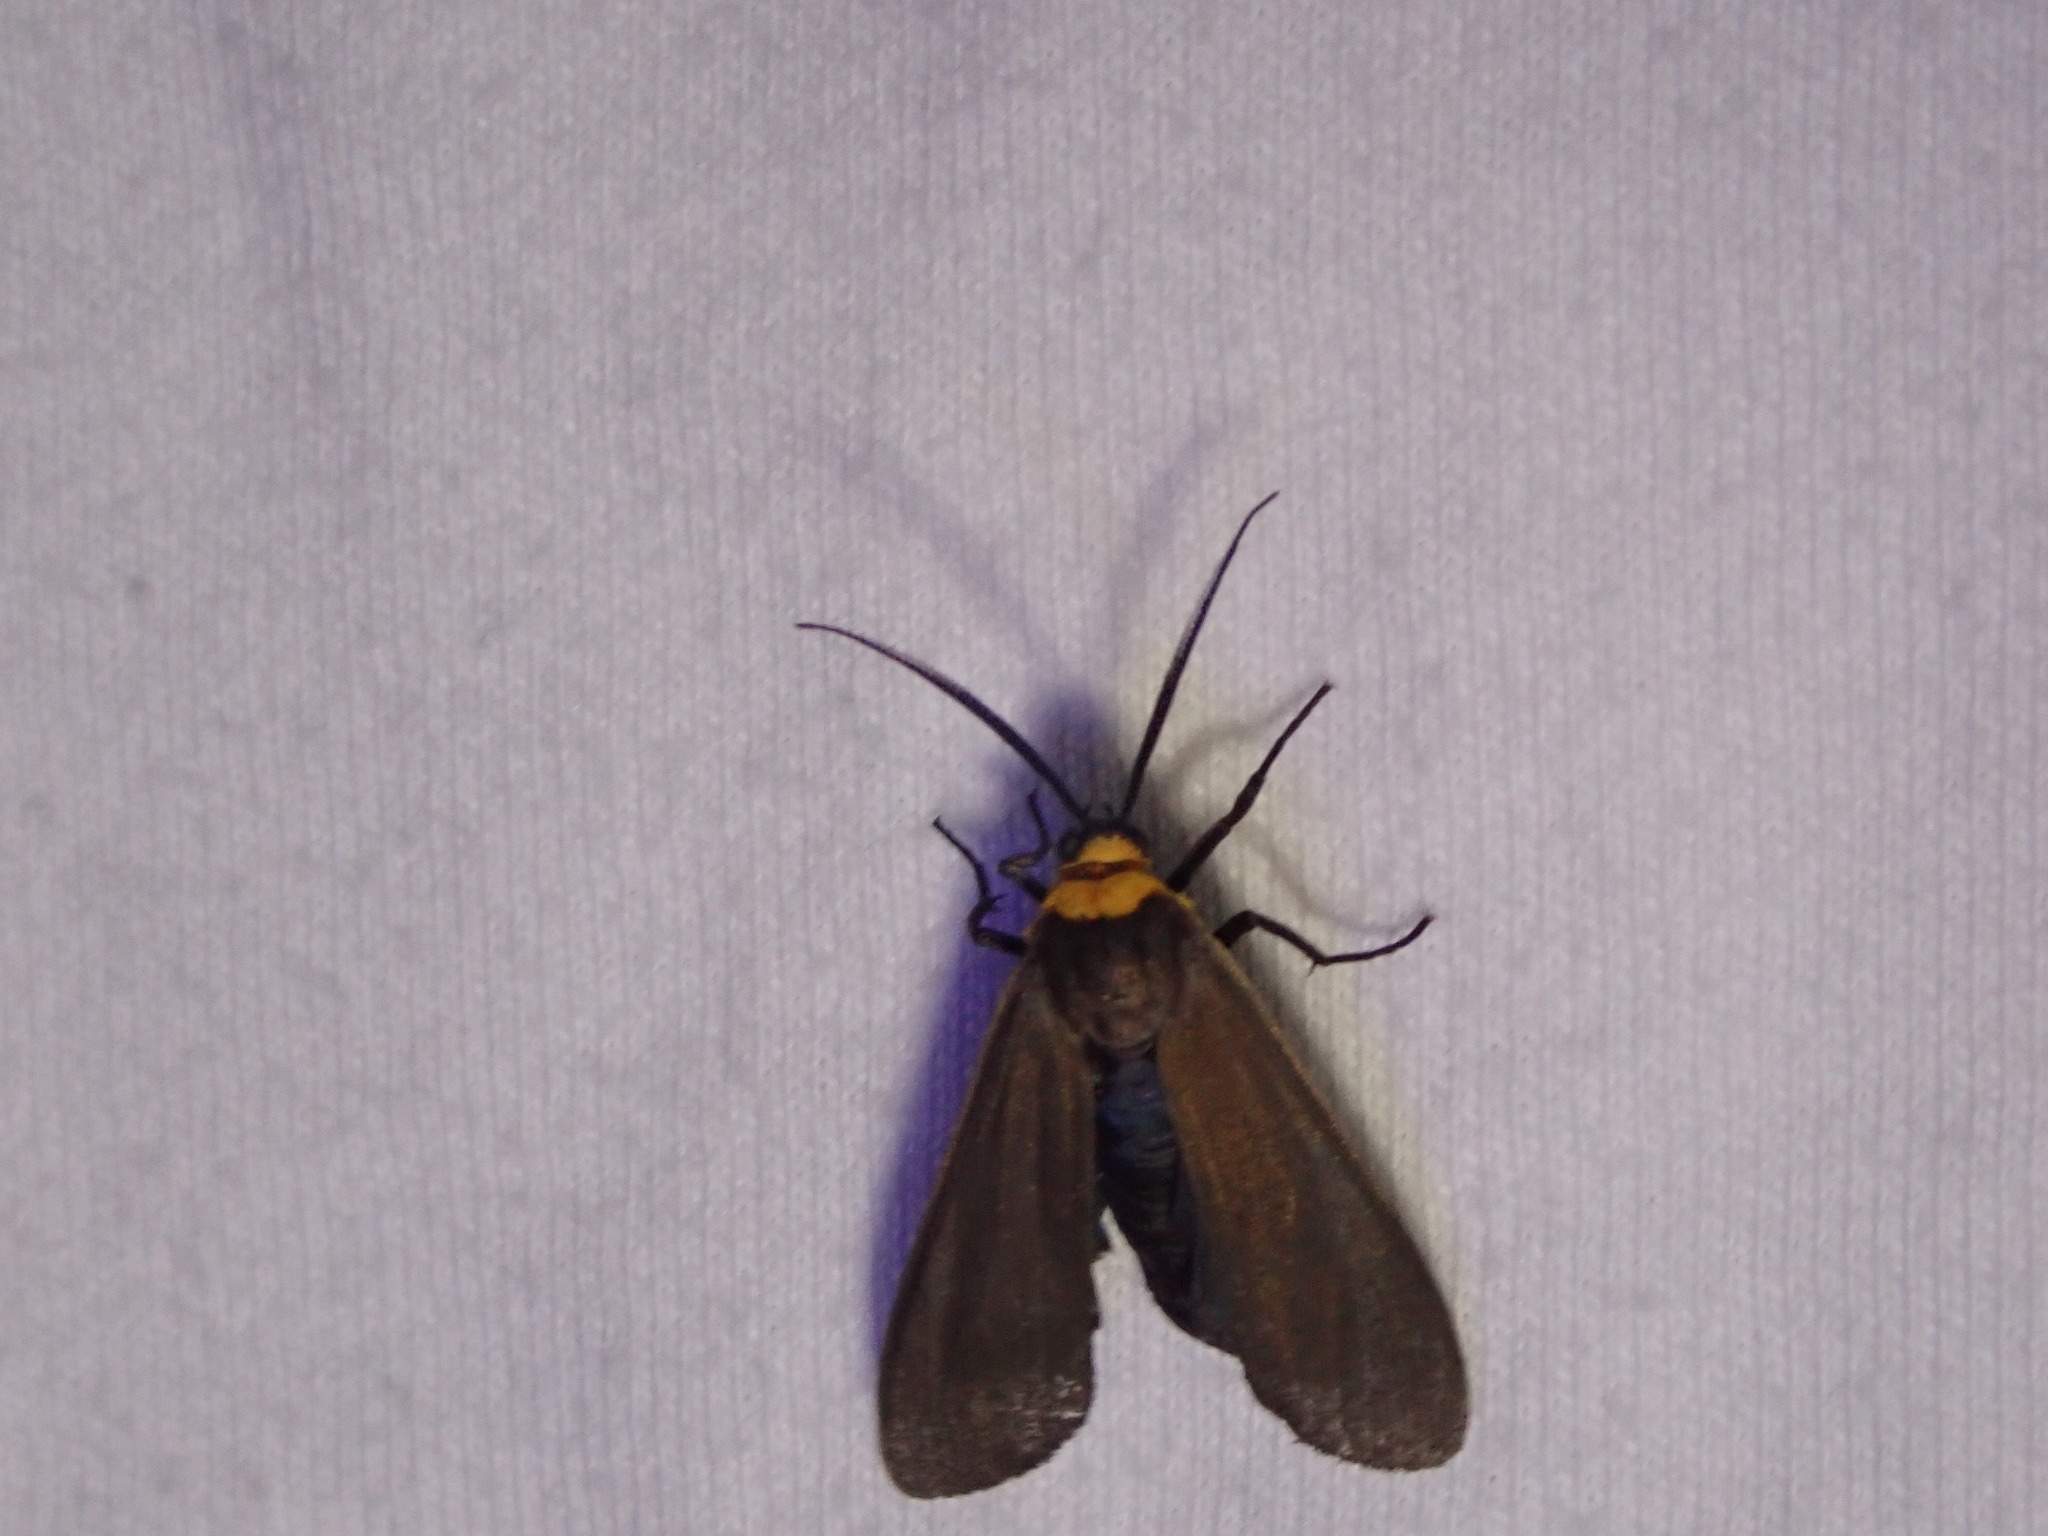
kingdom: Animalia
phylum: Arthropoda
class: Insecta
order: Lepidoptera
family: Erebidae
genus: Cisseps
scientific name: Cisseps fulvicollis
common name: Yellow-collared scape moth
